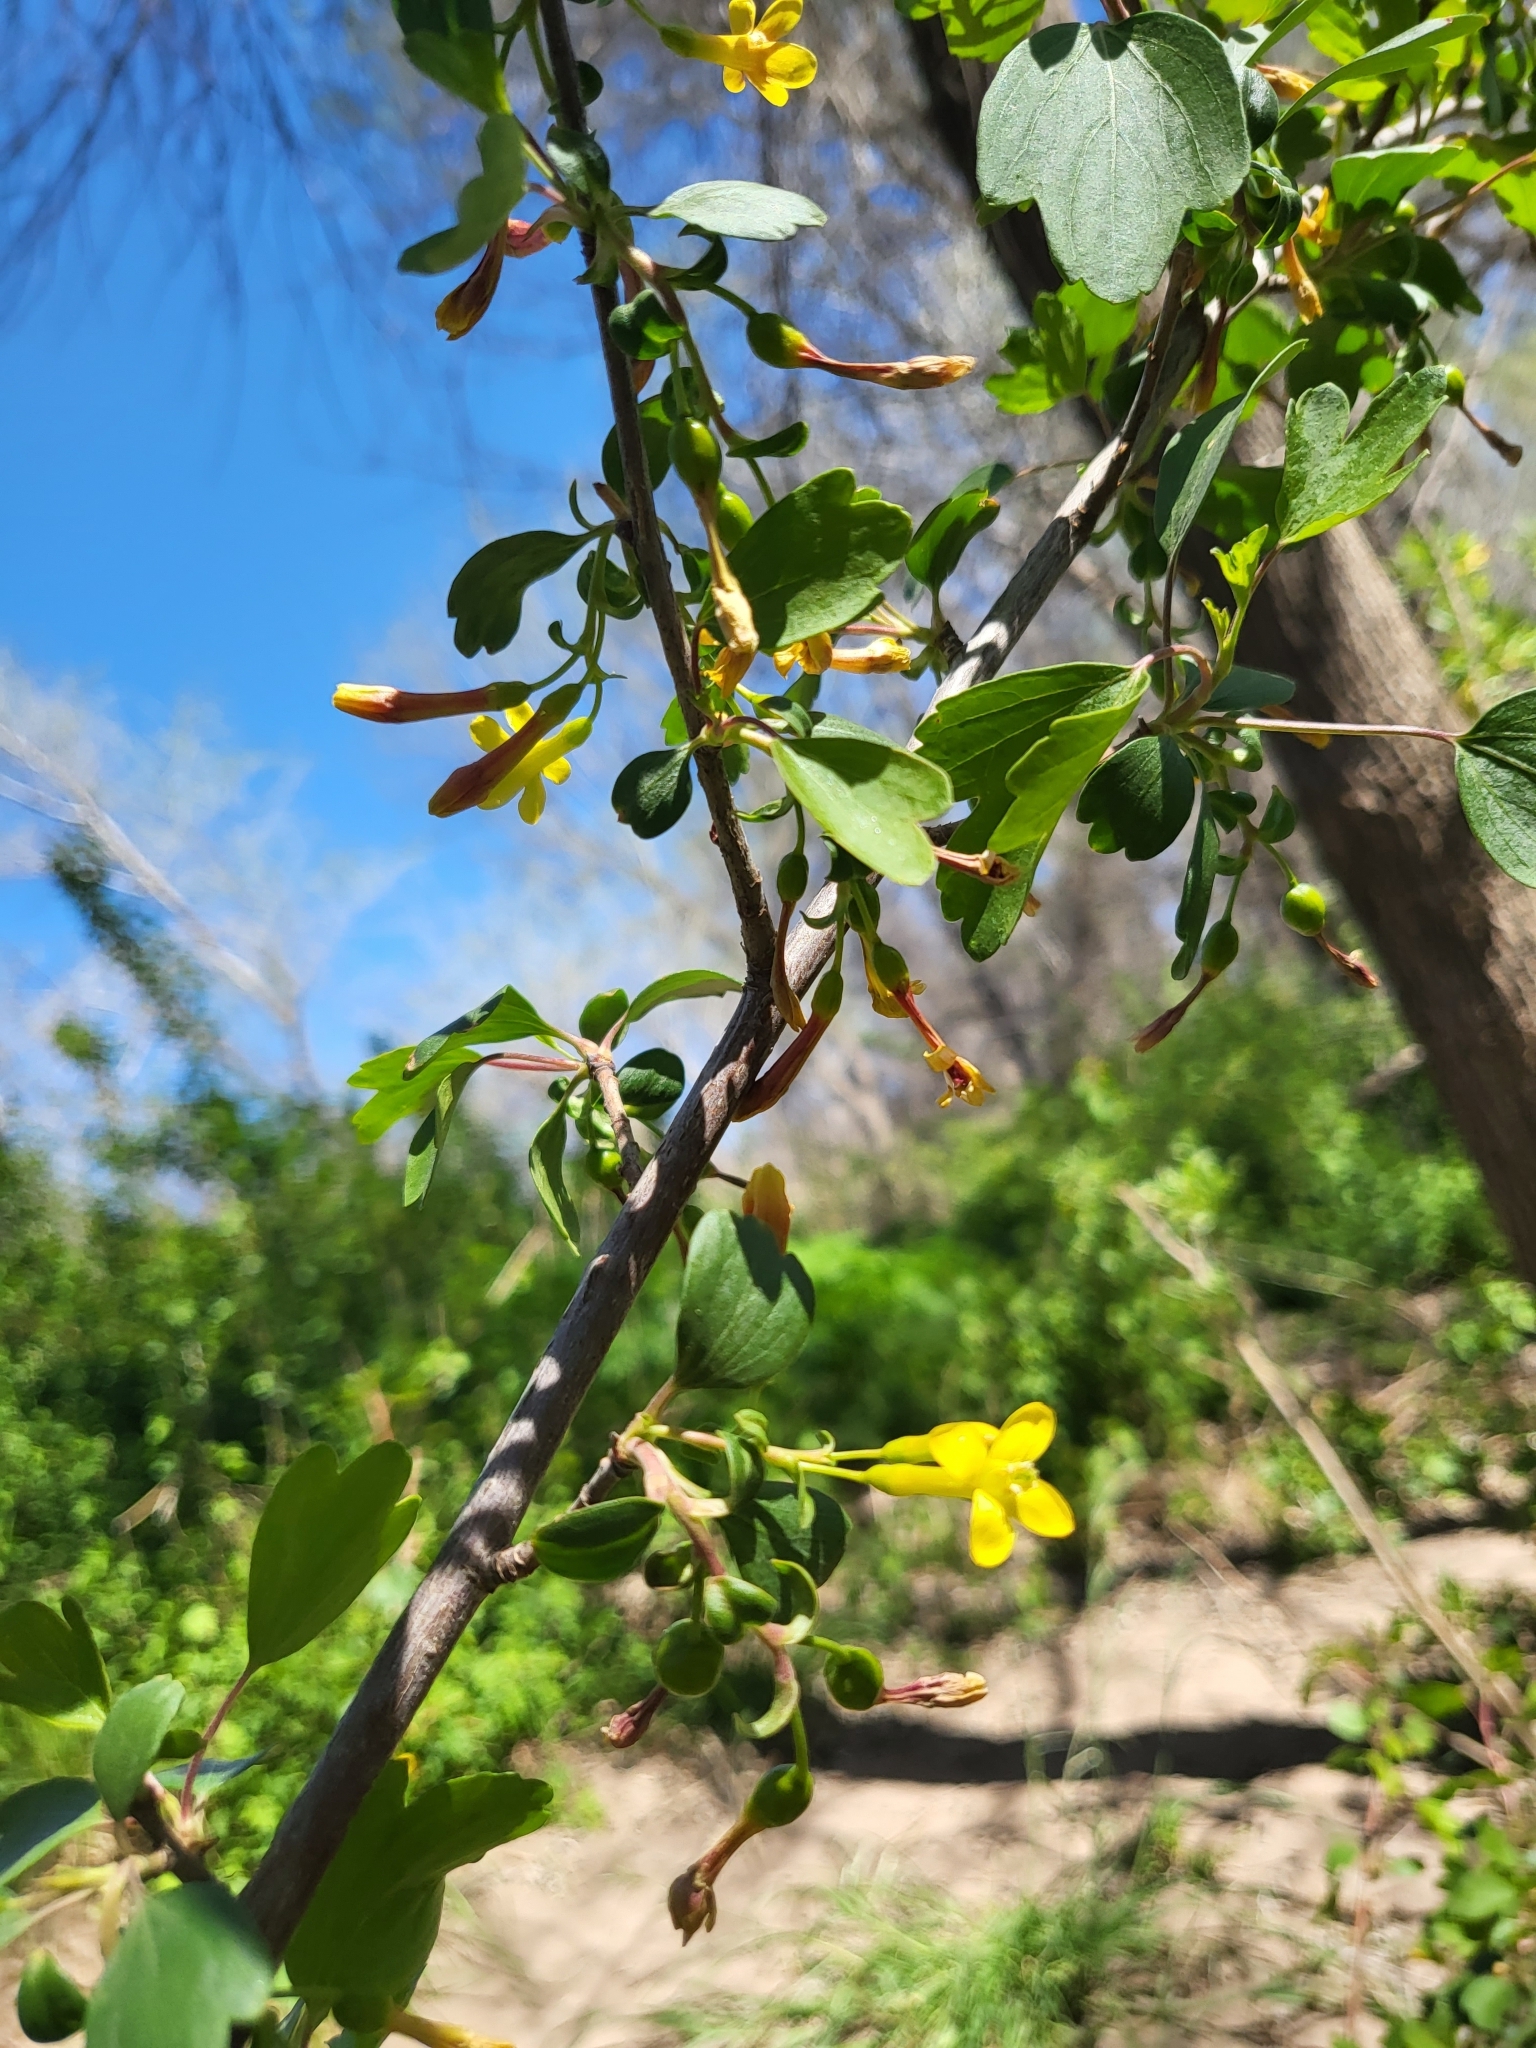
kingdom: Plantae
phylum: Tracheophyta
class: Magnoliopsida
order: Saxifragales
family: Grossulariaceae
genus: Ribes
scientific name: Ribes aureum
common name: Golden currant
